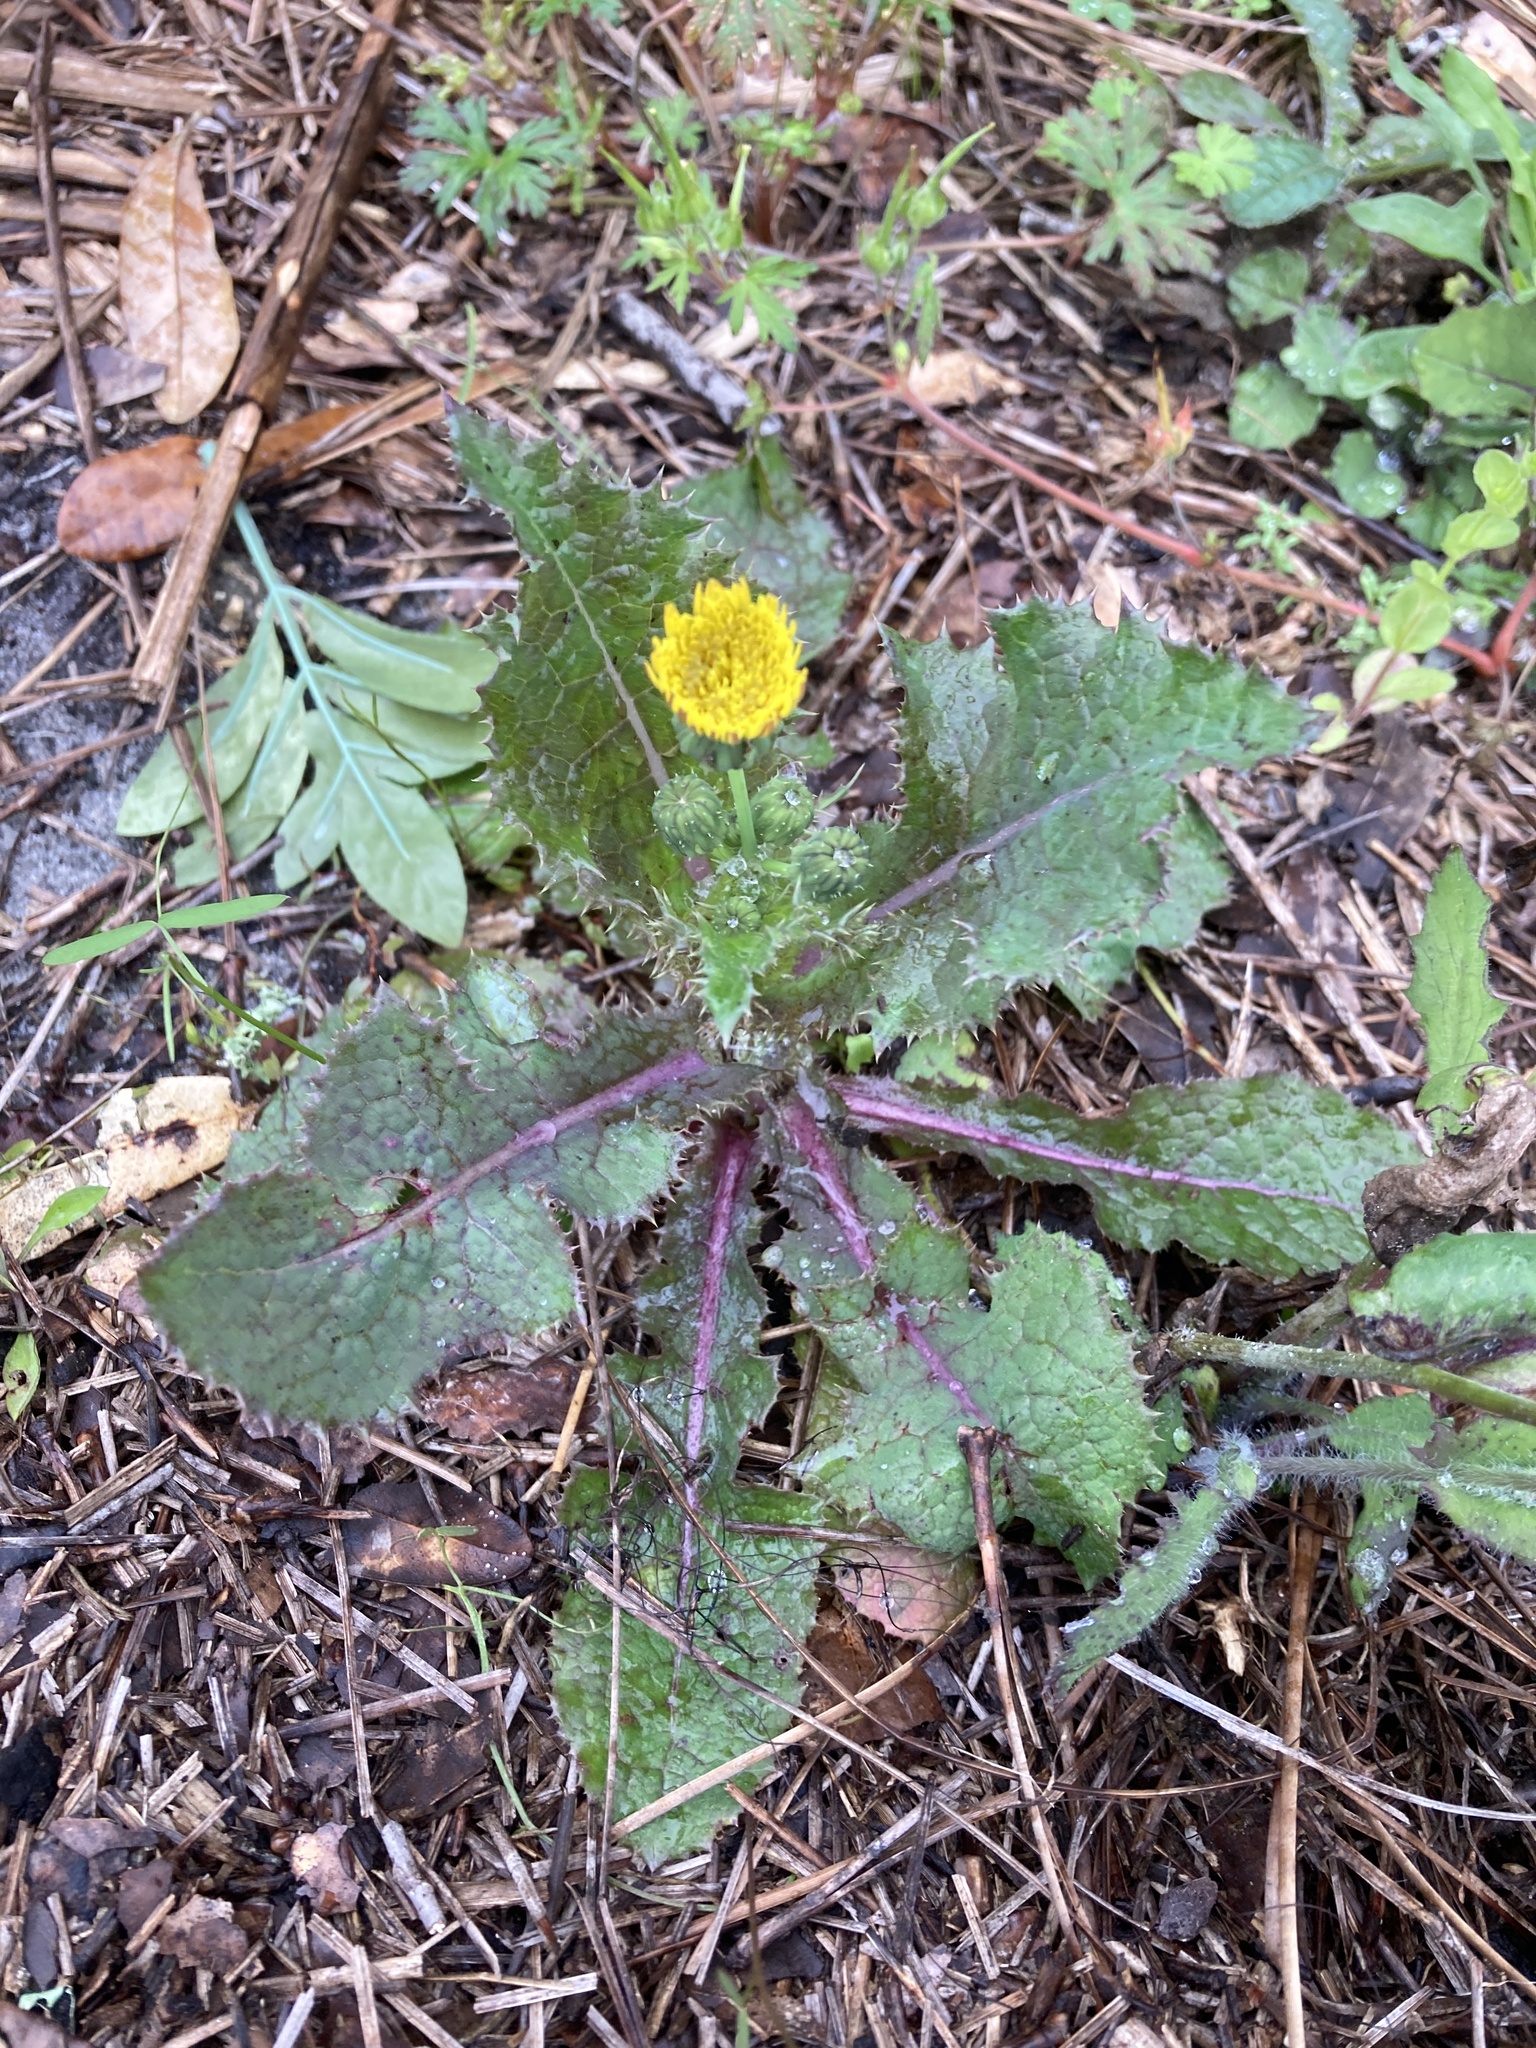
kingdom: Plantae
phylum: Tracheophyta
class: Magnoliopsida
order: Asterales
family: Asteraceae
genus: Sonchus
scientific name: Sonchus asper
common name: Prickly sow-thistle
